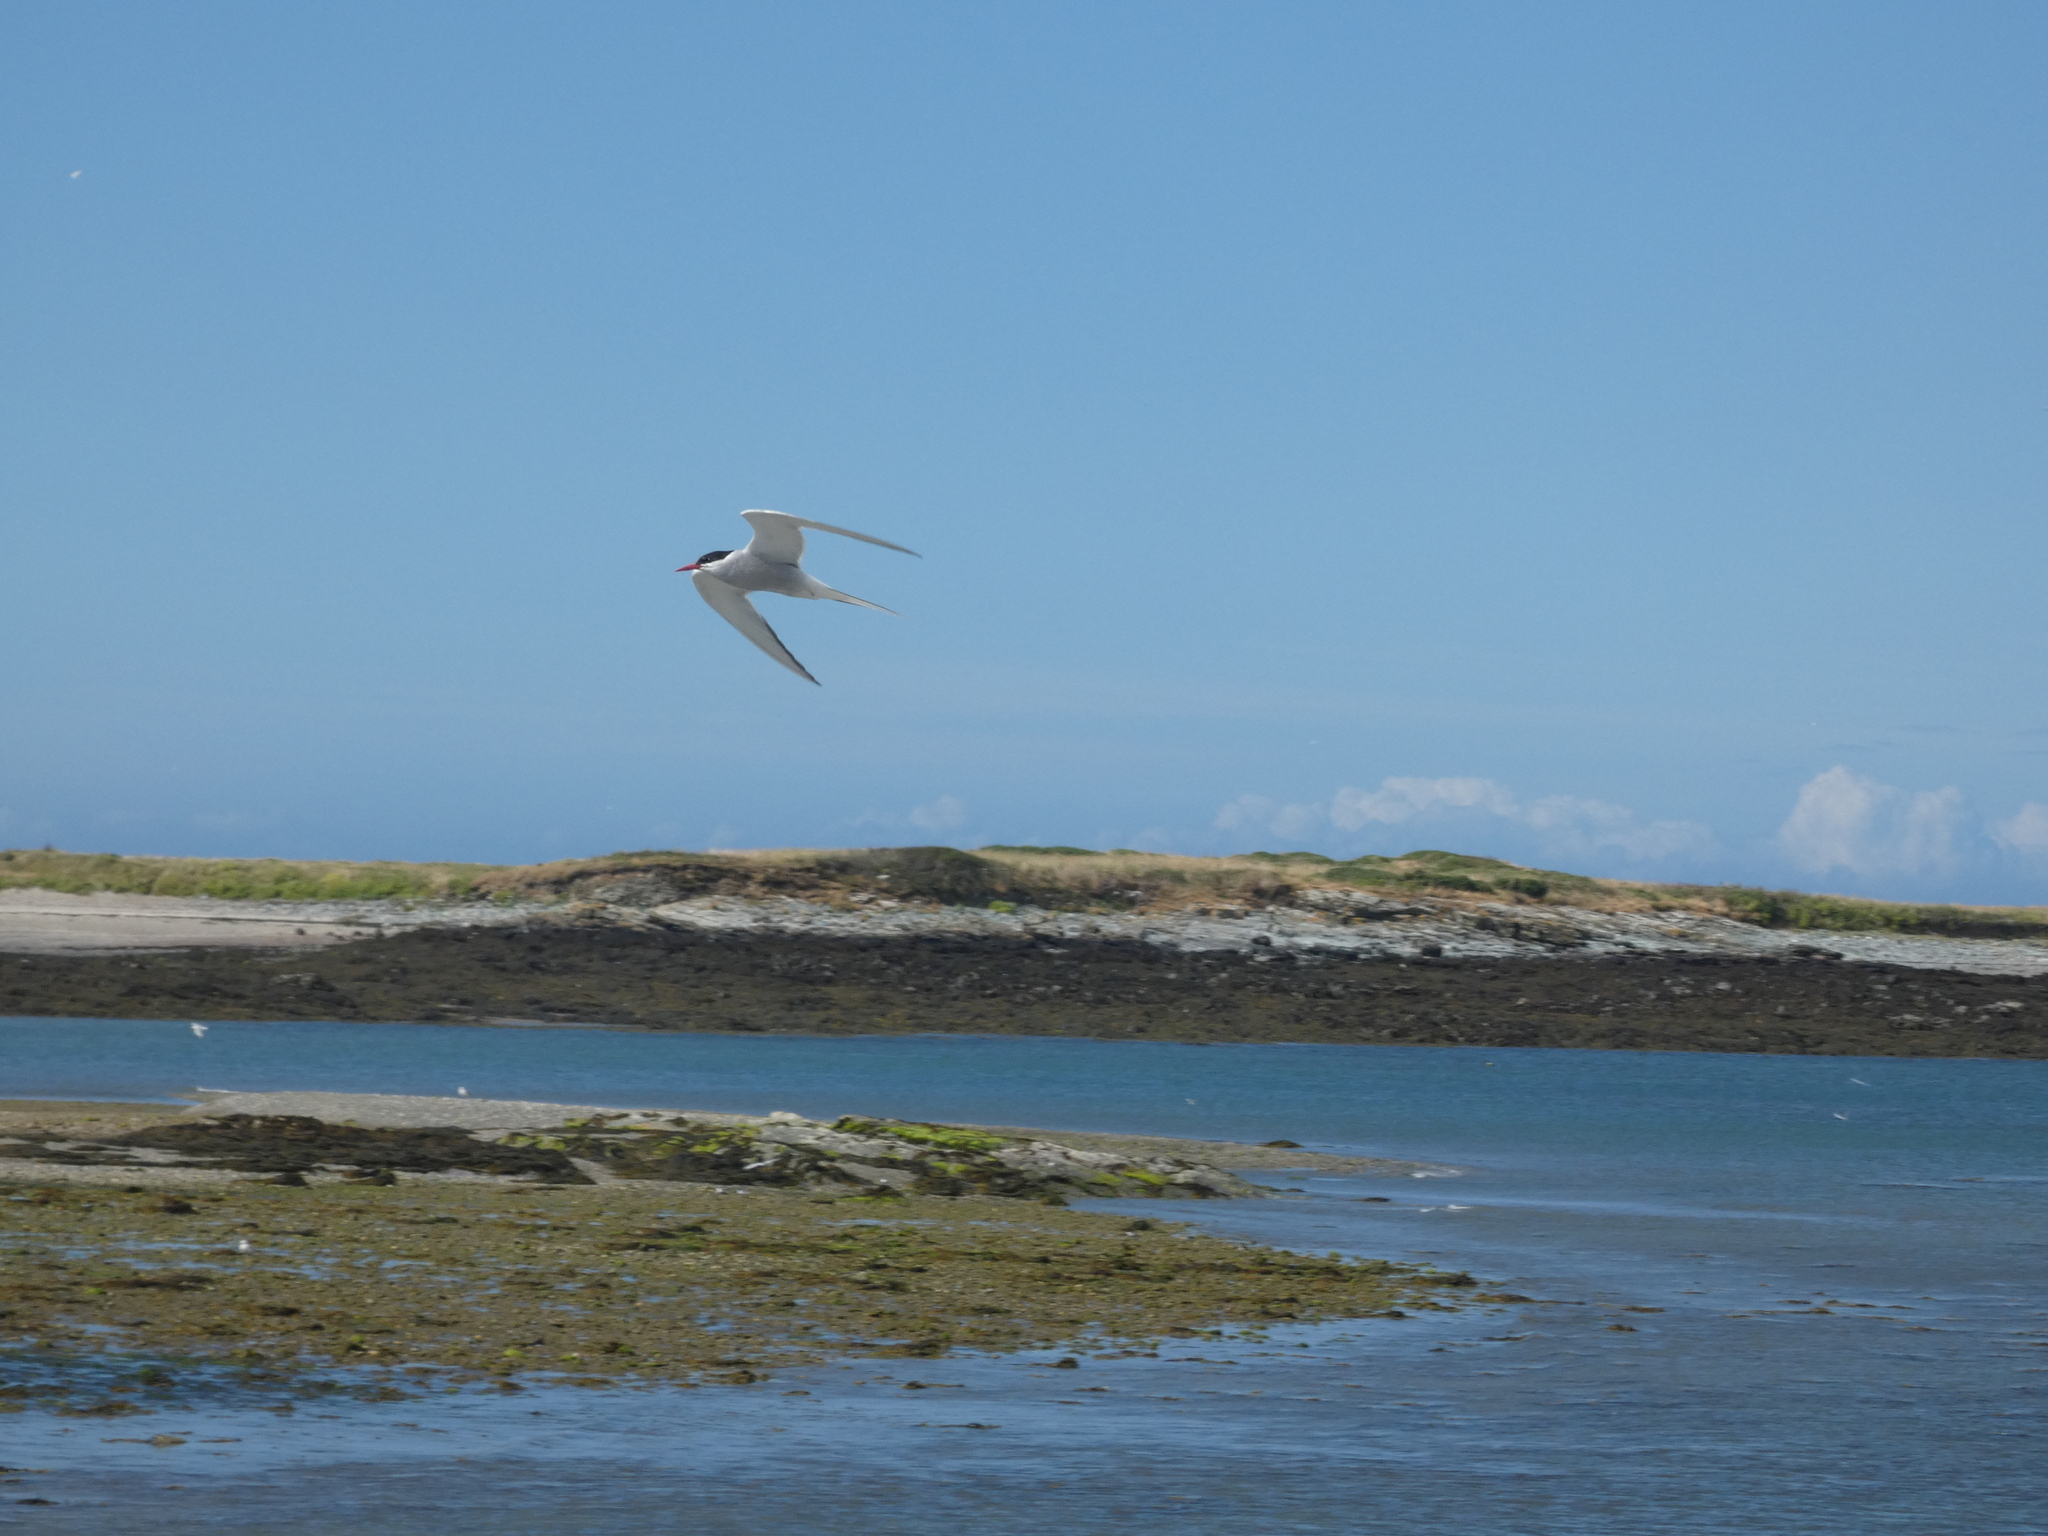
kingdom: Animalia
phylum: Chordata
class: Aves
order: Charadriiformes
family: Laridae
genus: Sterna
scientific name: Sterna paradisaea
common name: Arctic tern
